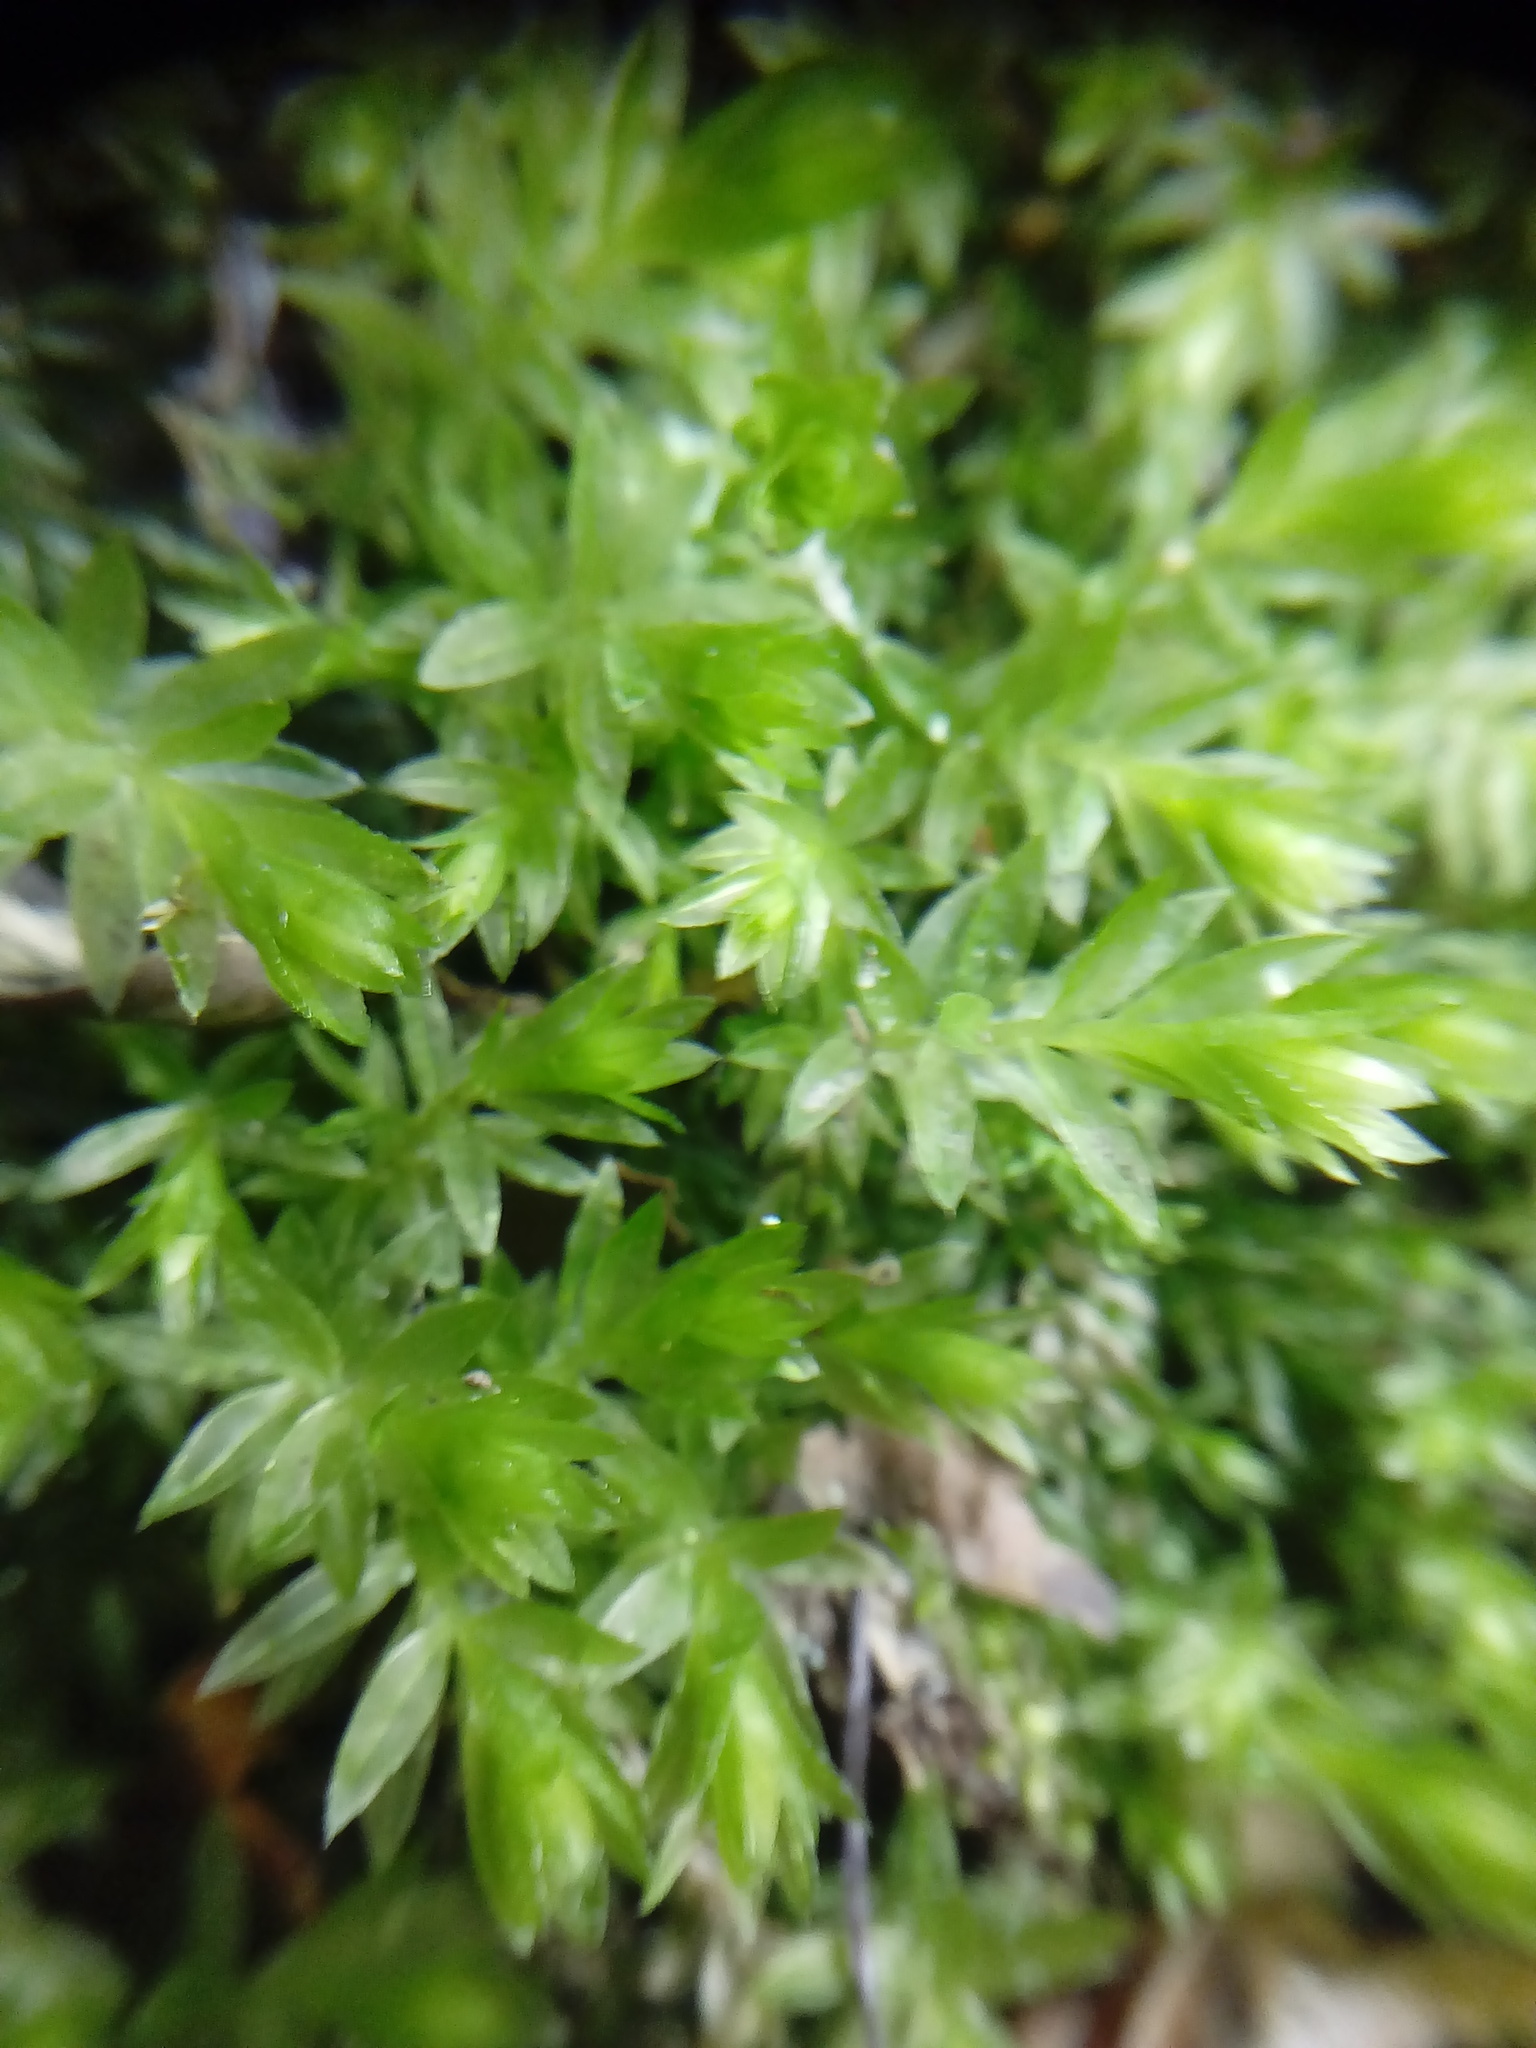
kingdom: Plantae
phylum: Bryophyta
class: Bryopsida
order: Bryales
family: Mniaceae
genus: Mnium
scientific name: Mnium hornum
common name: Swan's-neck leafy moss
